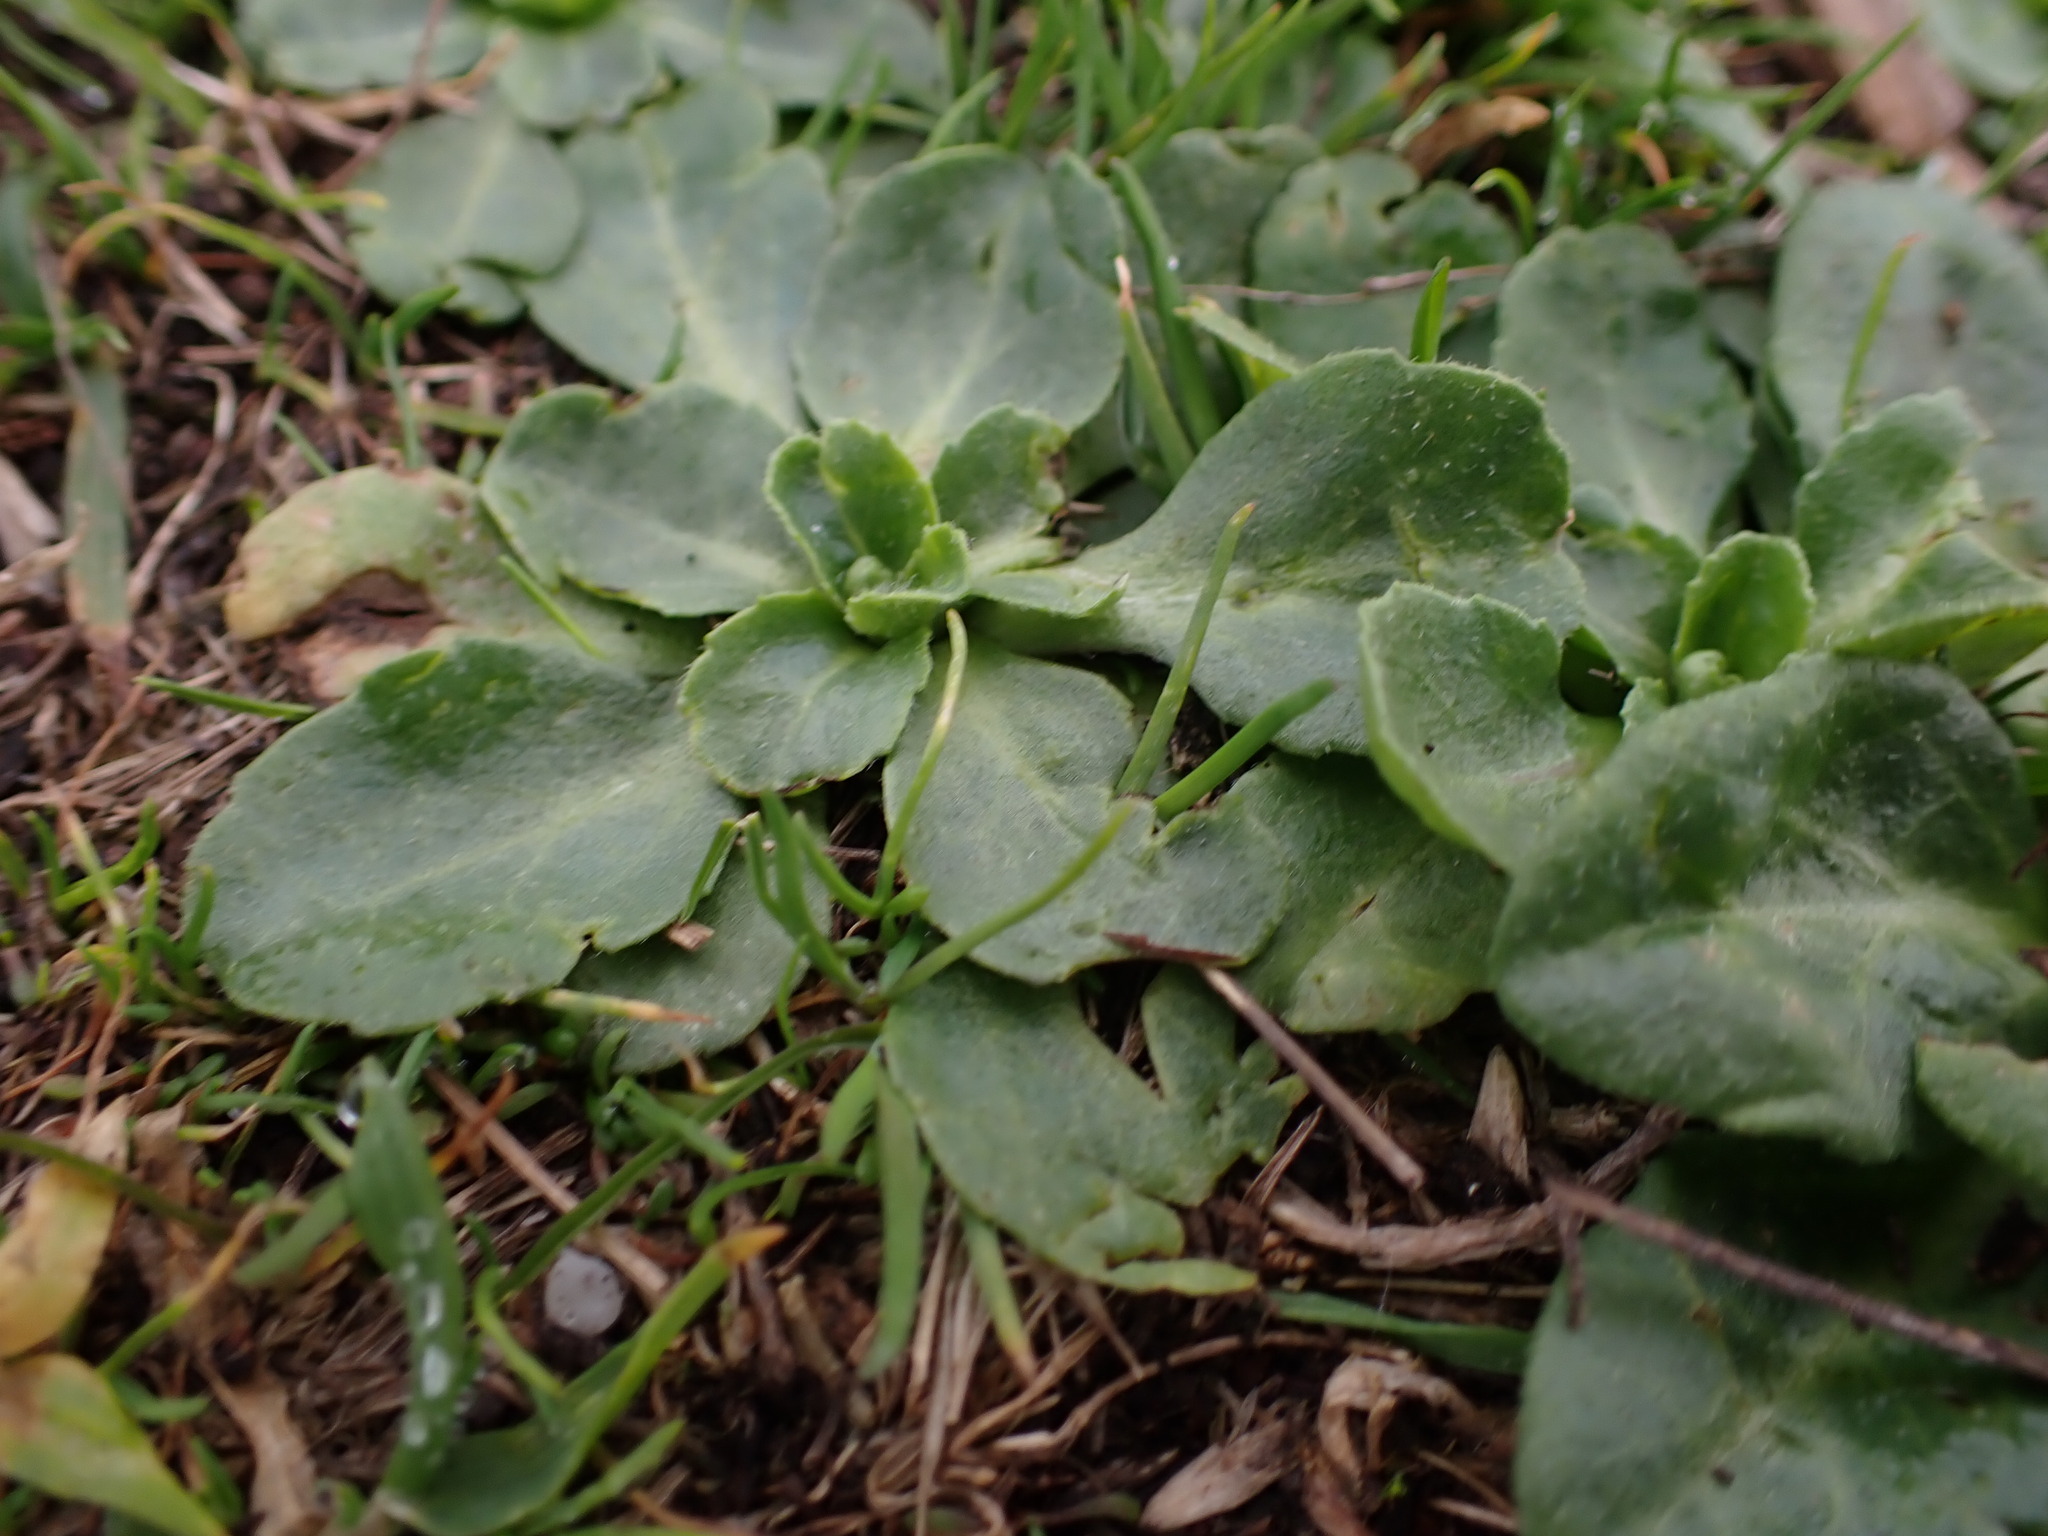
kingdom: Plantae
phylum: Tracheophyta
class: Magnoliopsida
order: Asterales
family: Asteraceae
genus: Bellis
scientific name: Bellis perennis
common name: Lawndaisy
